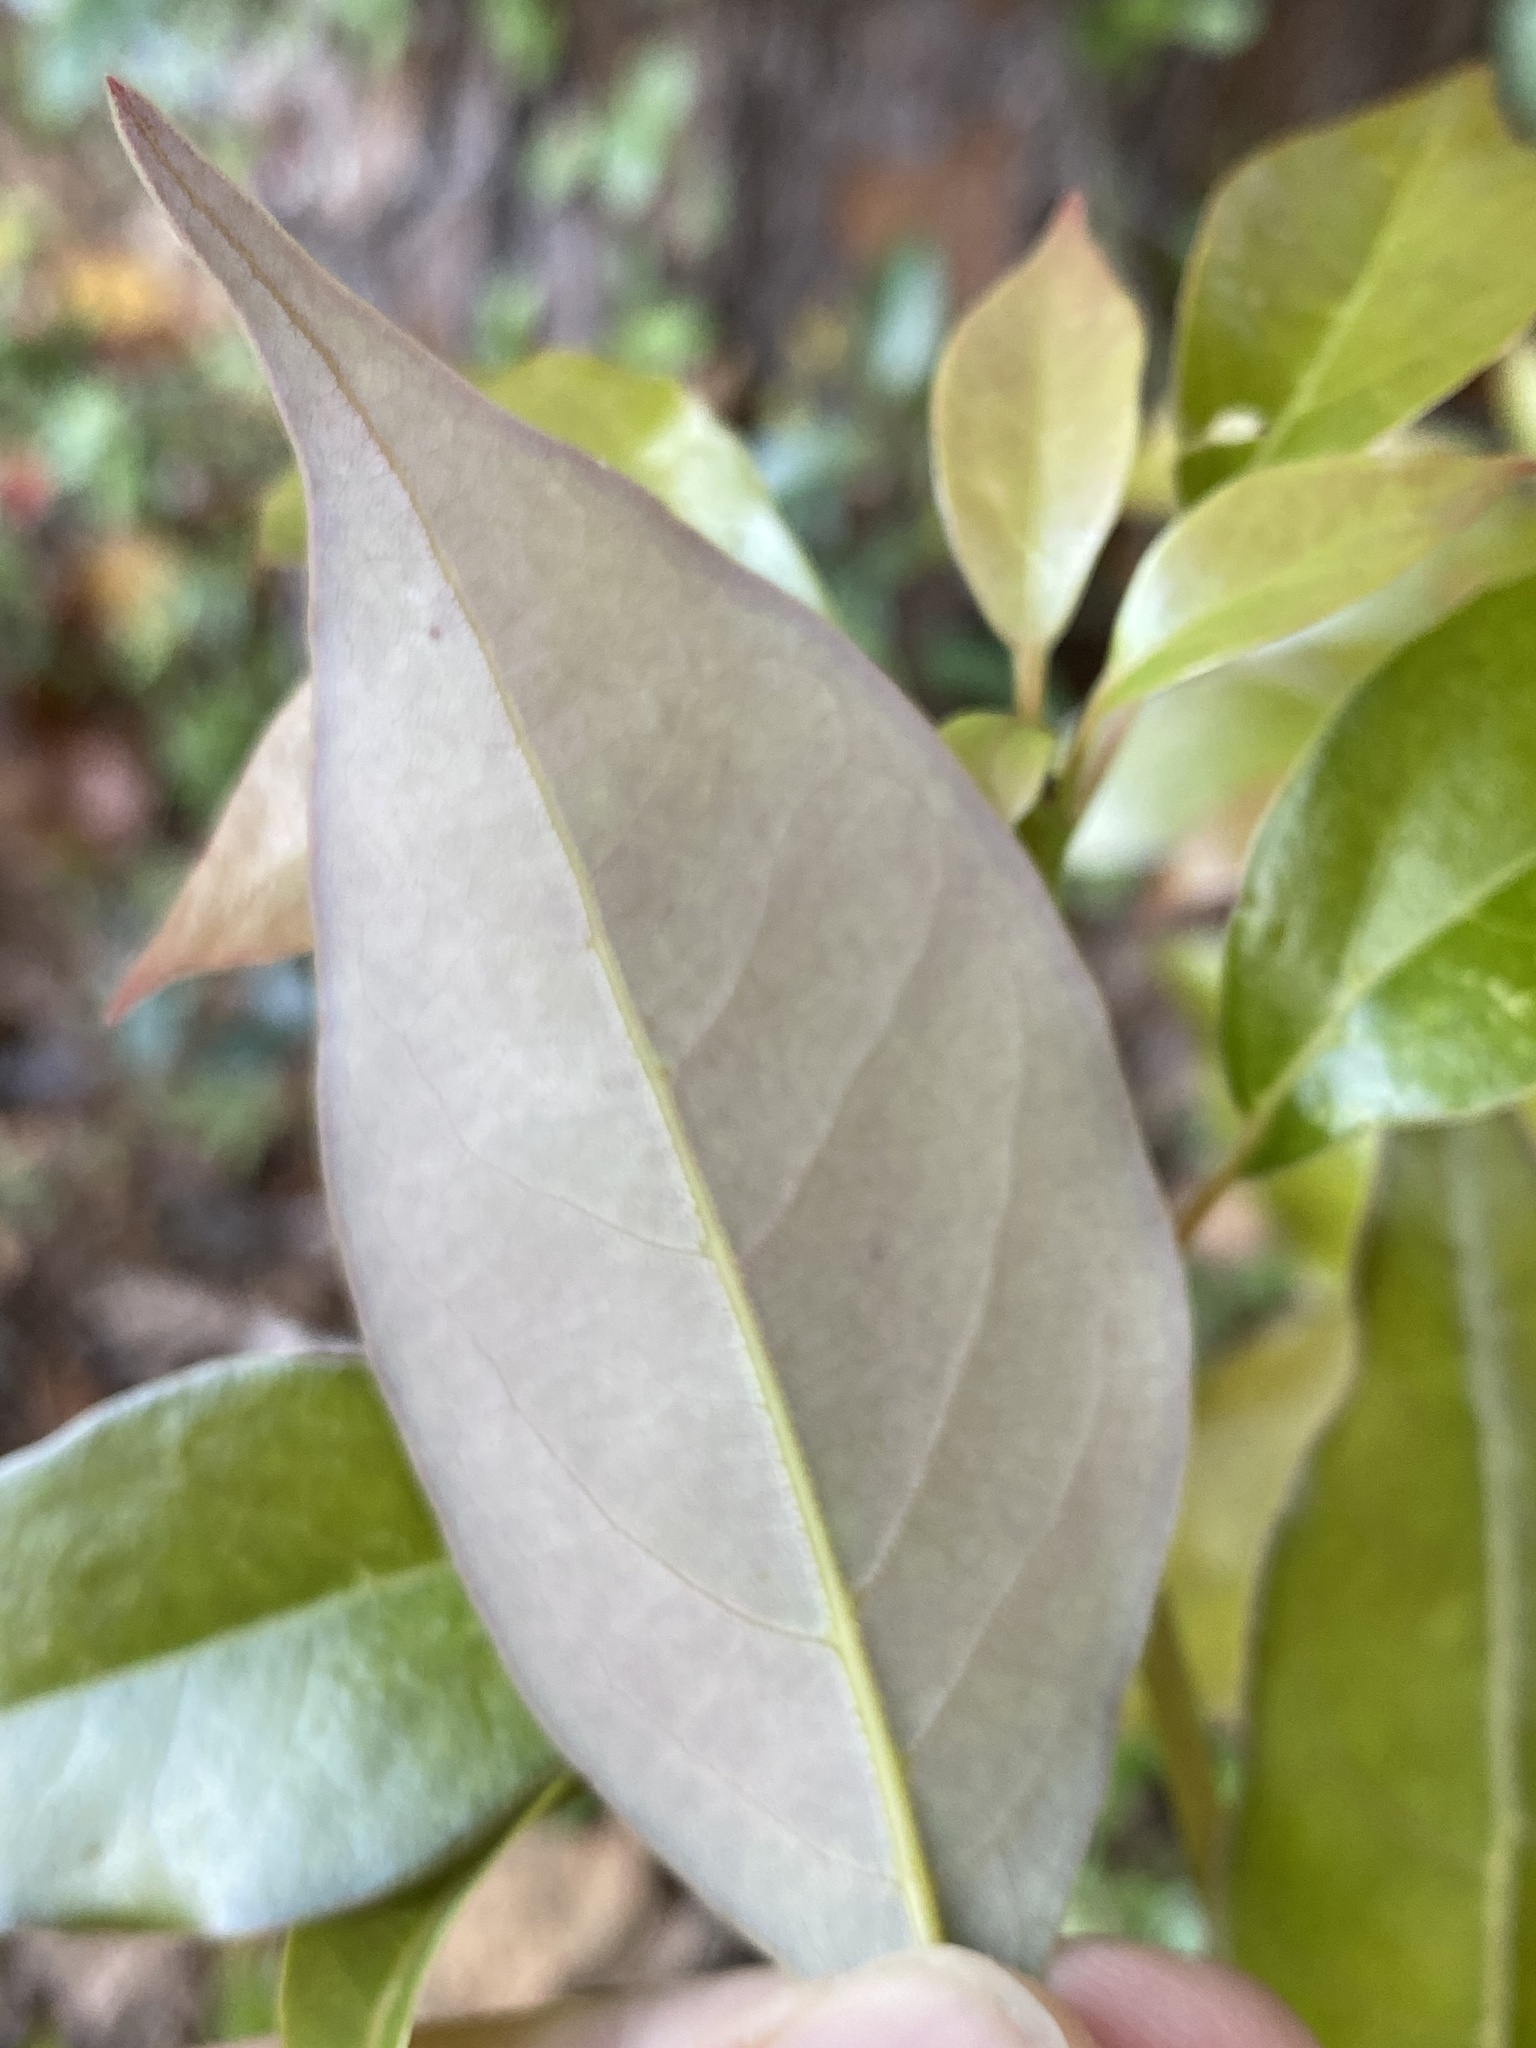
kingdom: Plantae
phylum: Tracheophyta
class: Magnoliopsida
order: Laurales
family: Lauraceae
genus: Cinnamomum
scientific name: Cinnamomum camphora
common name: Camphortree
